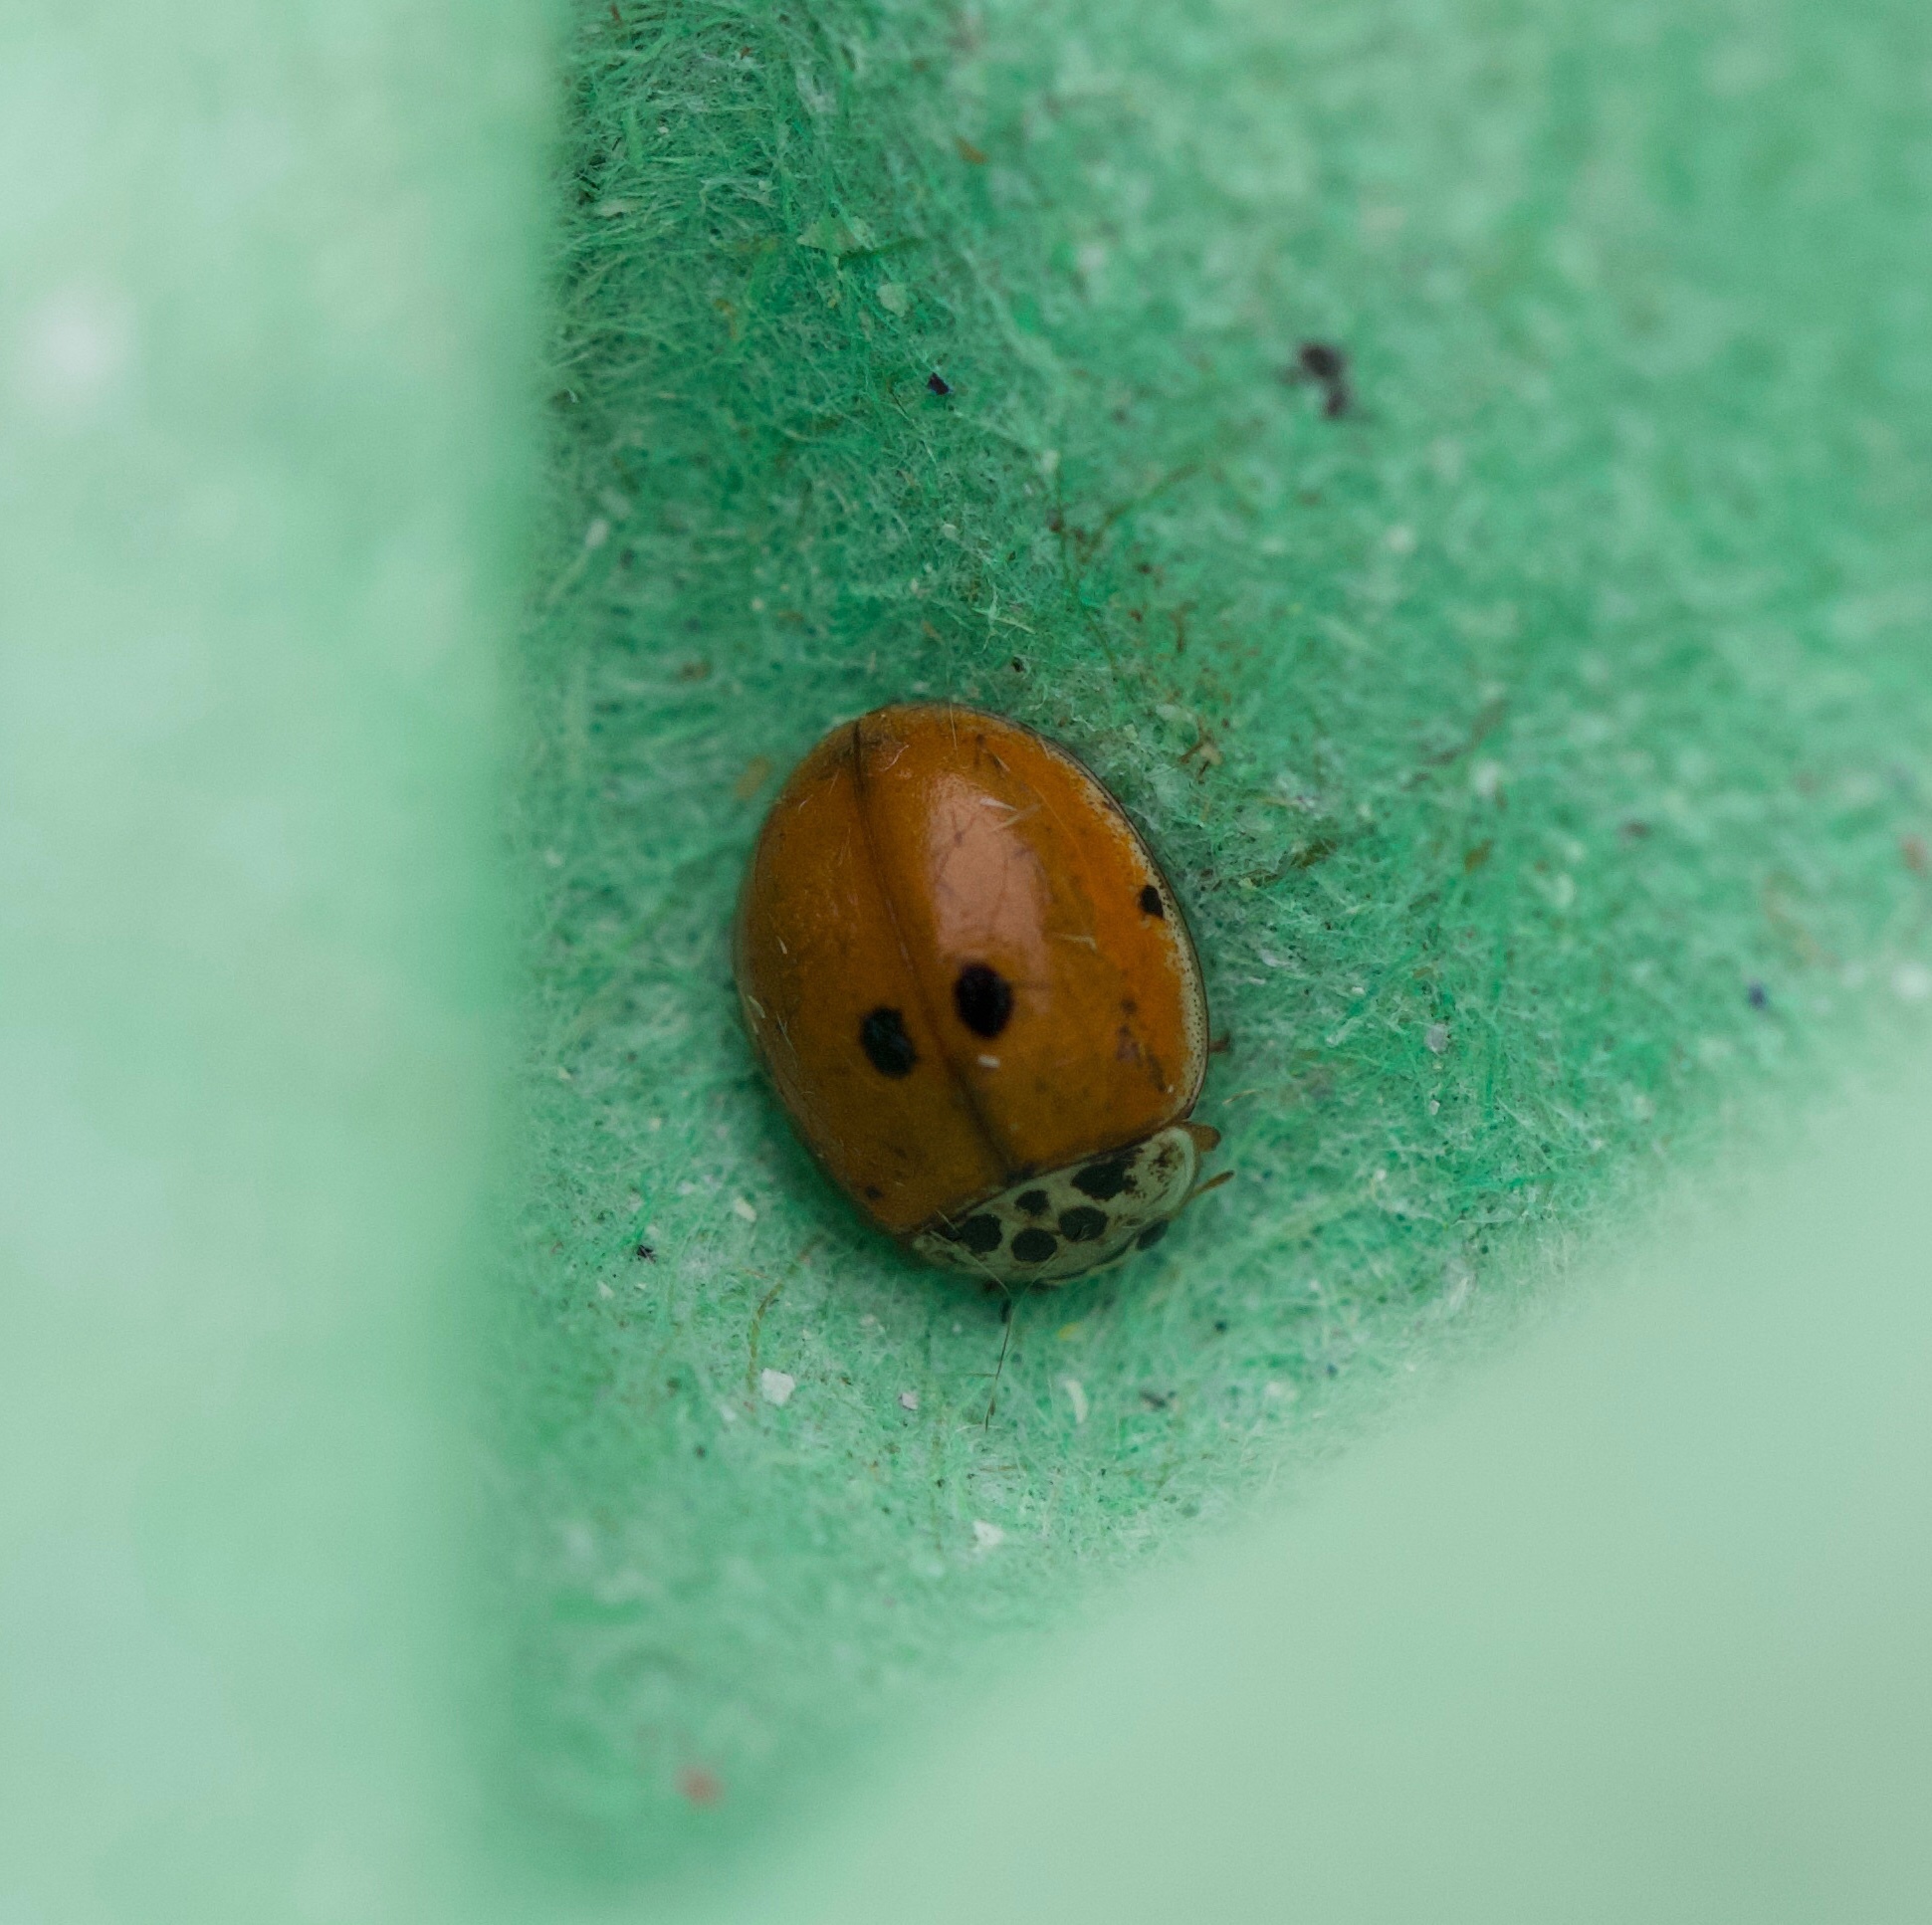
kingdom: Animalia
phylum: Arthropoda
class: Insecta
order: Coleoptera
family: Coccinellidae
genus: Adalia
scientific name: Adalia decempunctata
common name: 10-spot ladybird
